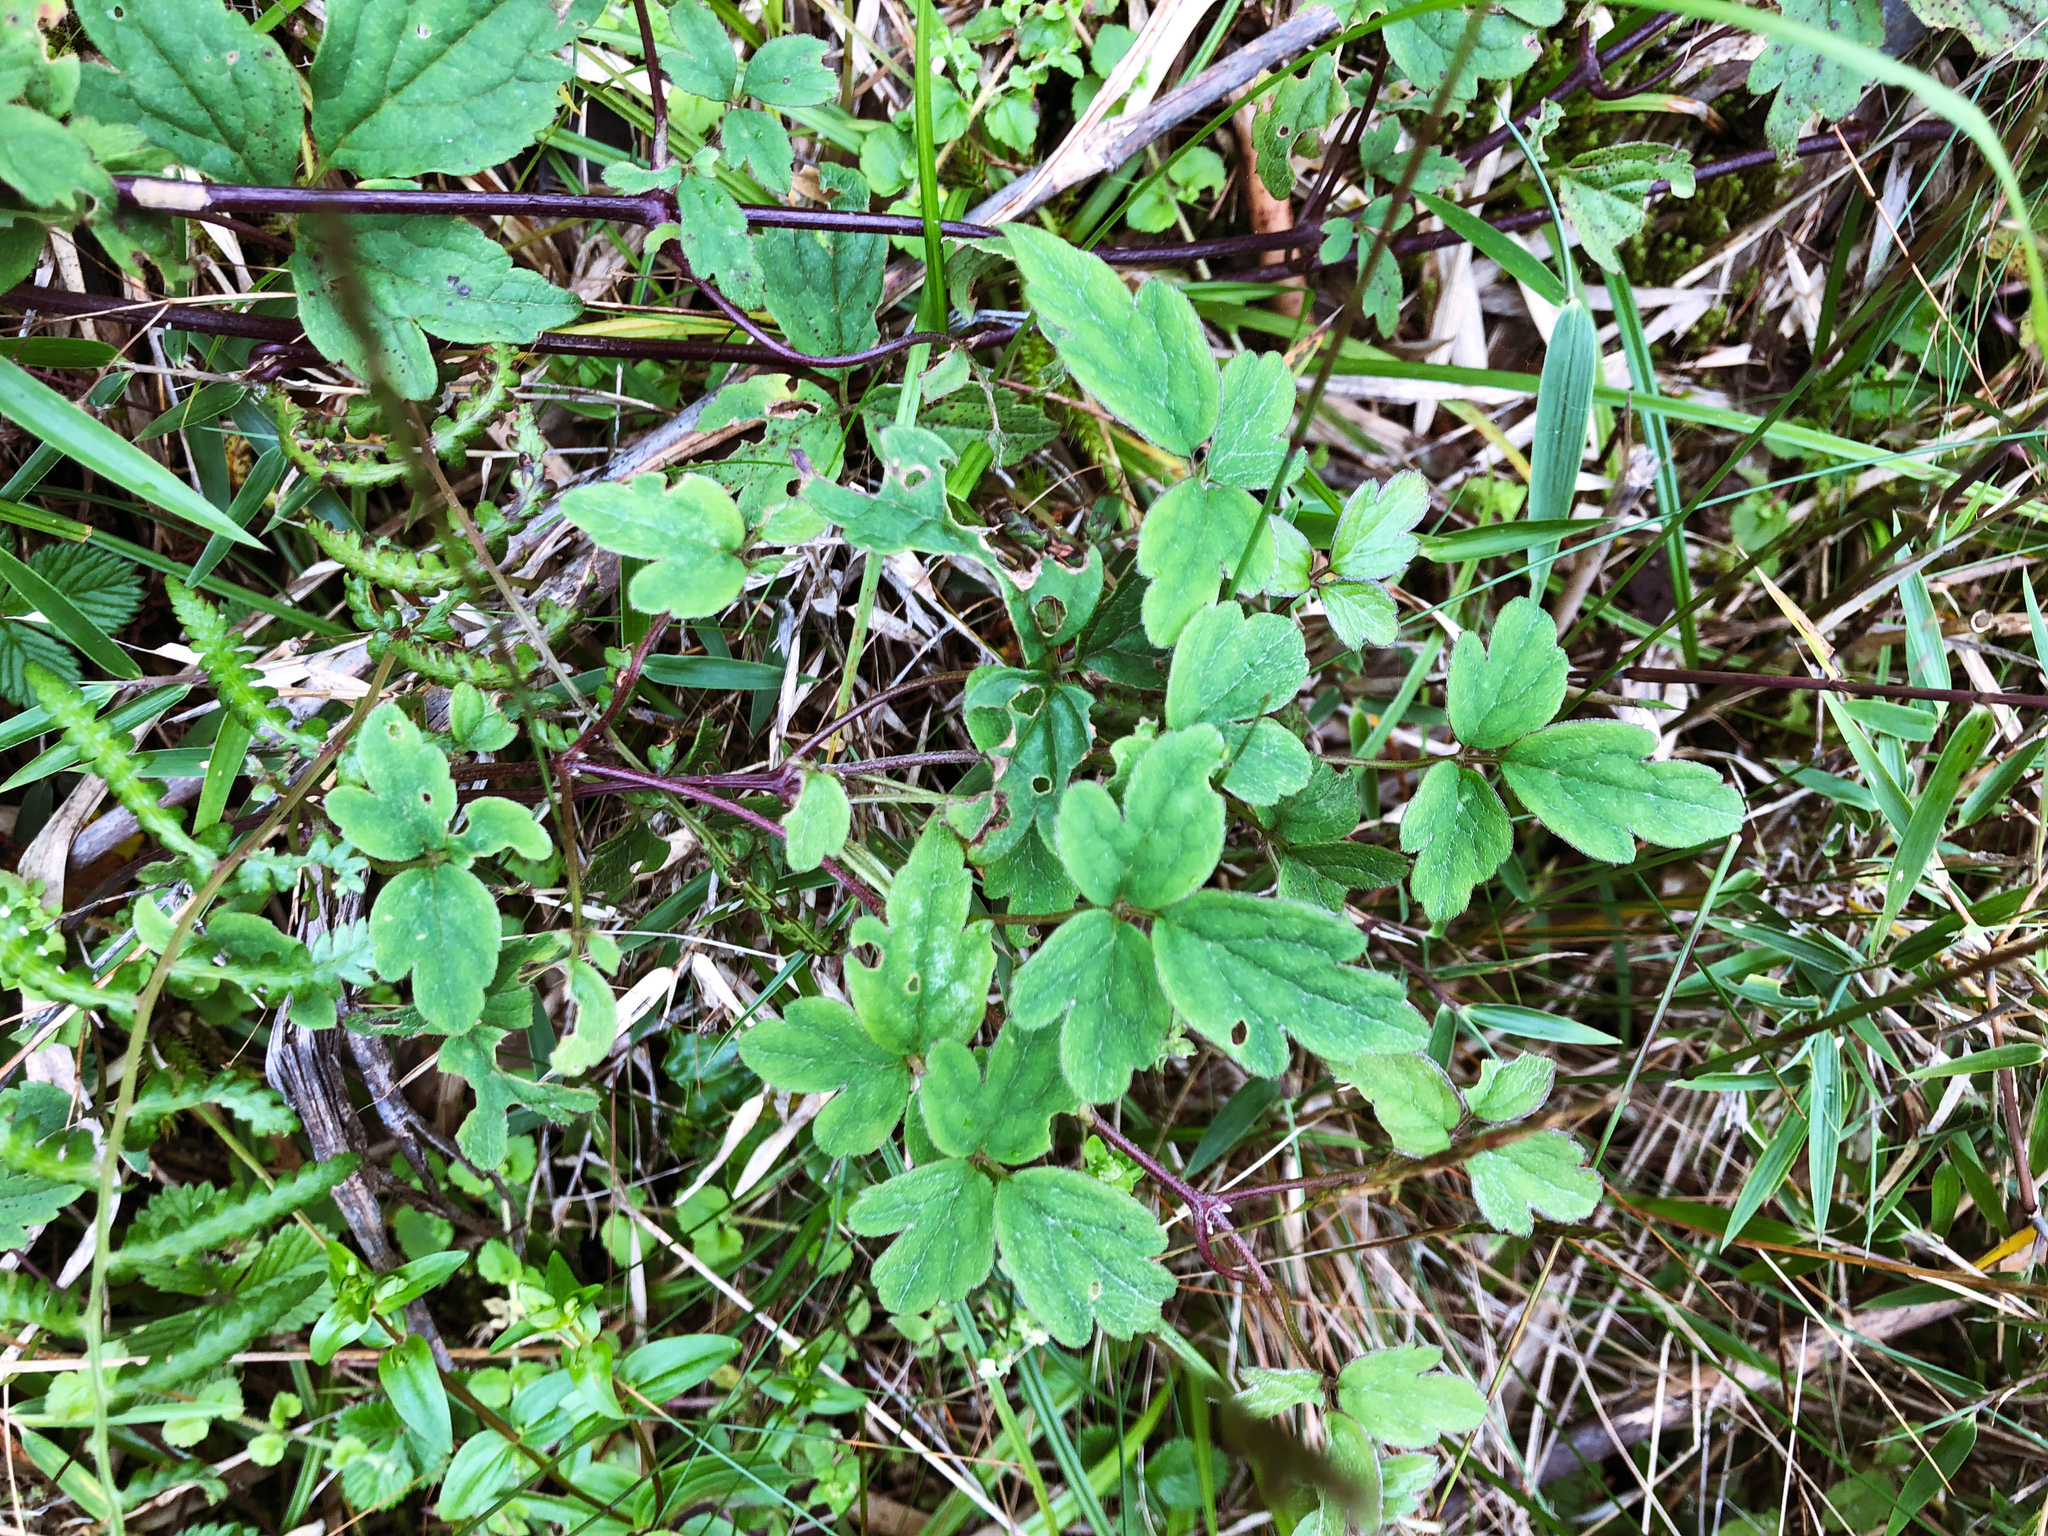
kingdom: Plantae
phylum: Tracheophyta
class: Magnoliopsida
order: Ranunculales
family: Ranunculaceae
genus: Clematis
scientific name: Clematis montana
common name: Himalayan clematis
